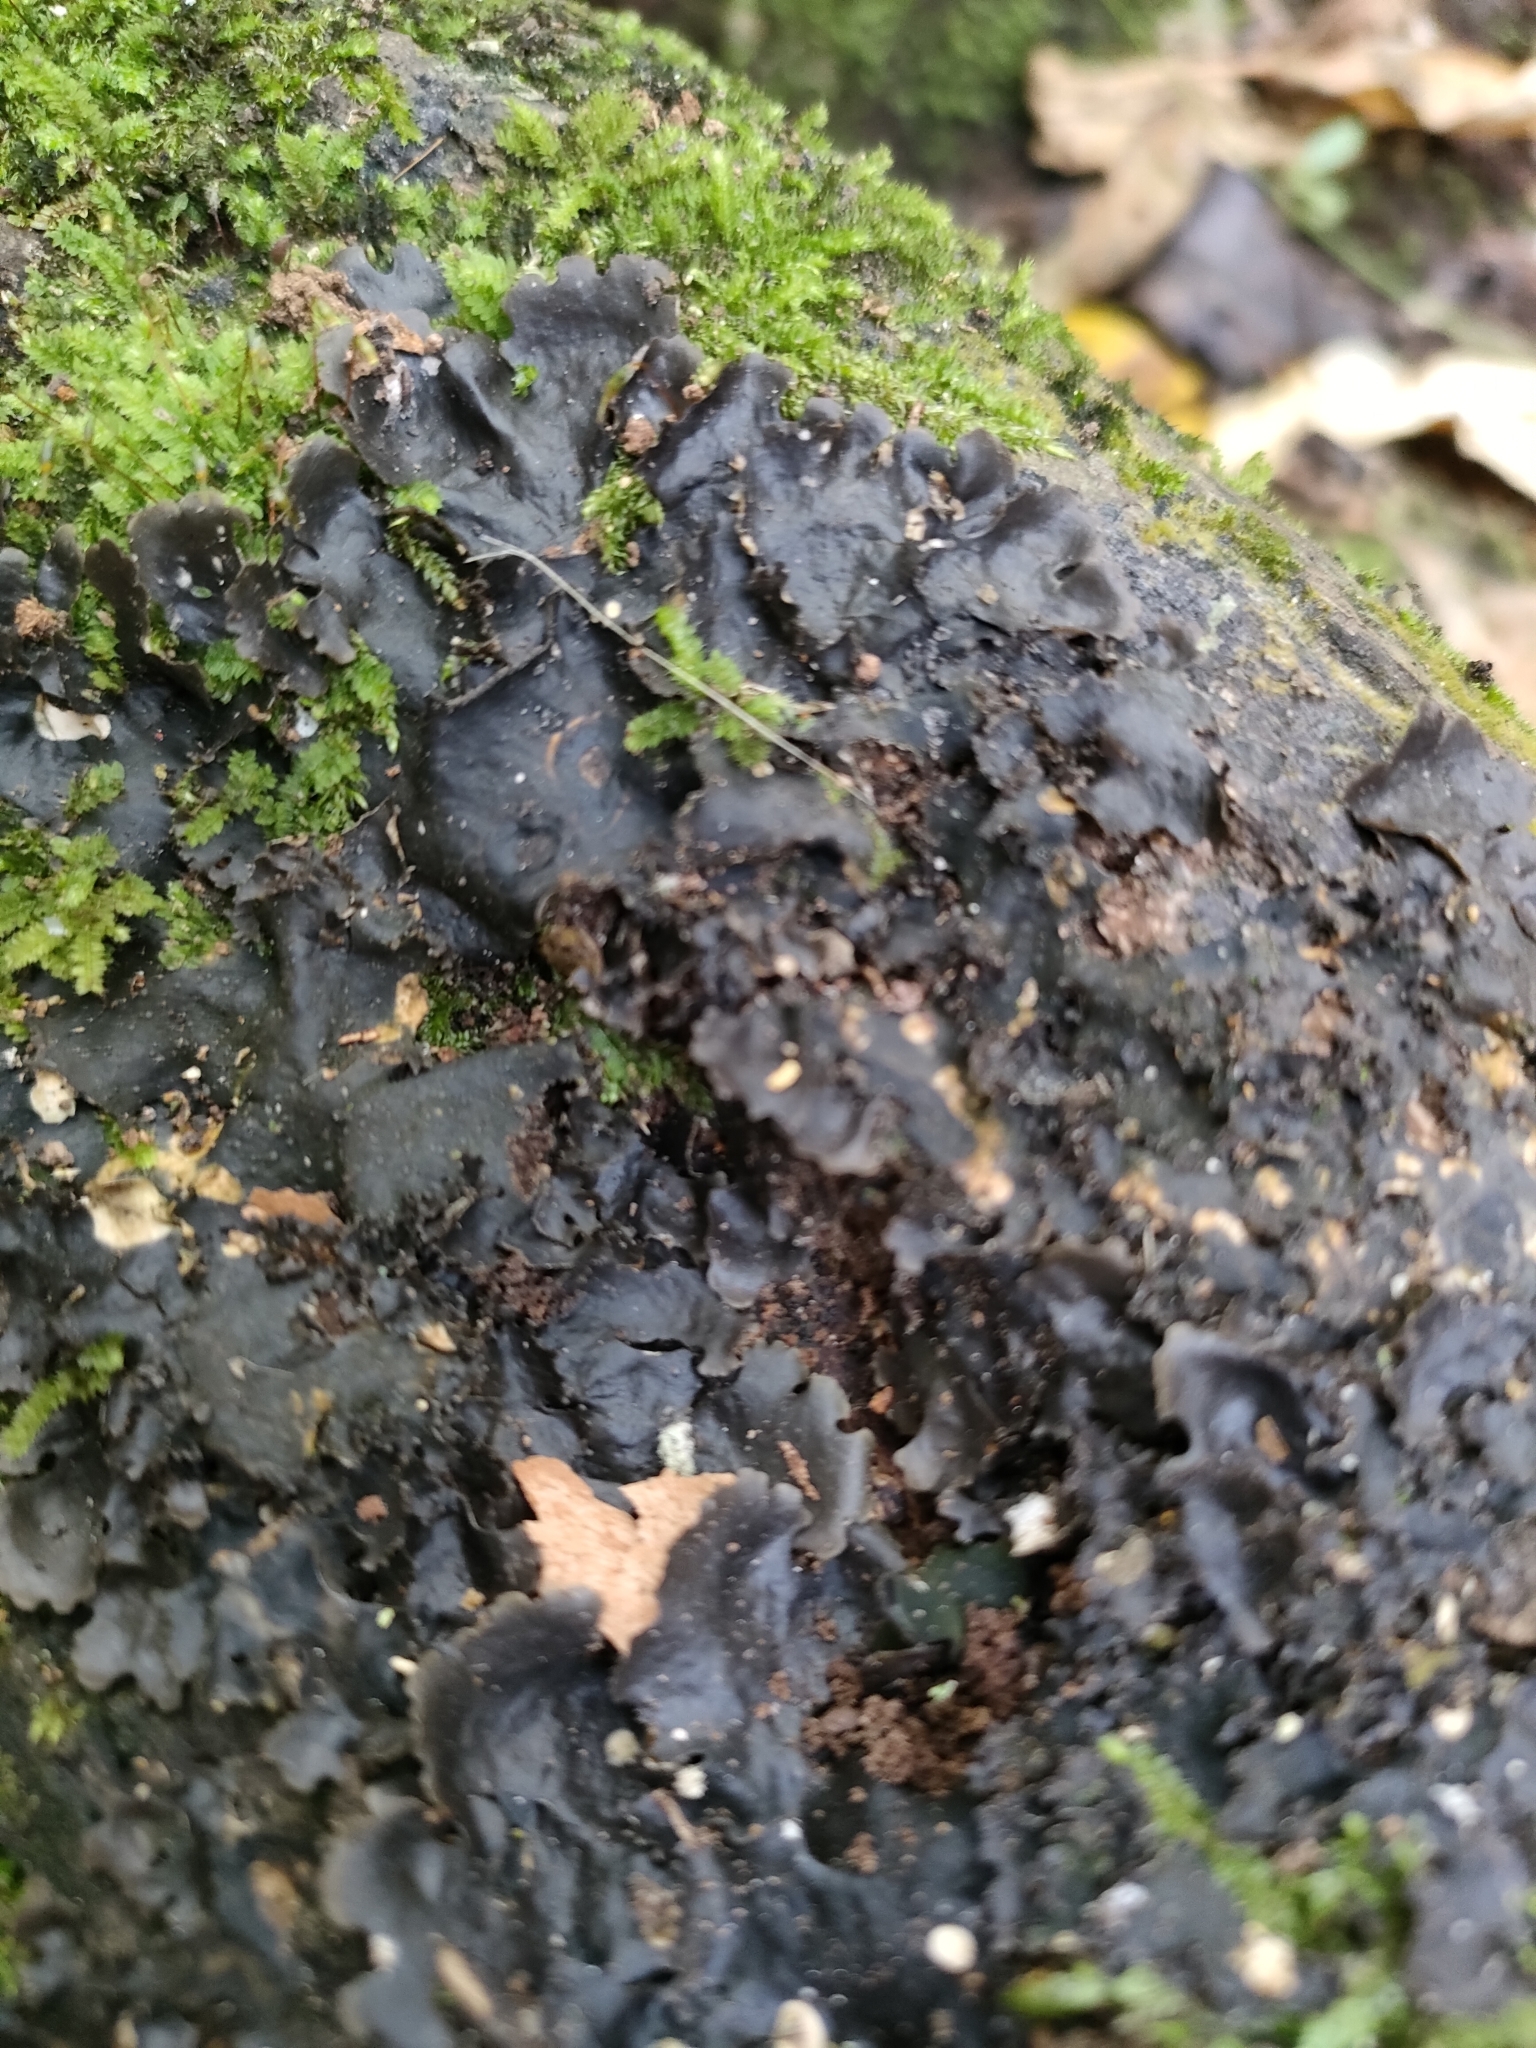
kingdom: Fungi
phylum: Ascomycota
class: Lecanoromycetes
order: Peltigerales
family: Lobariaceae
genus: Pseudocyphellaria
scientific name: Pseudocyphellaria dissimilis
